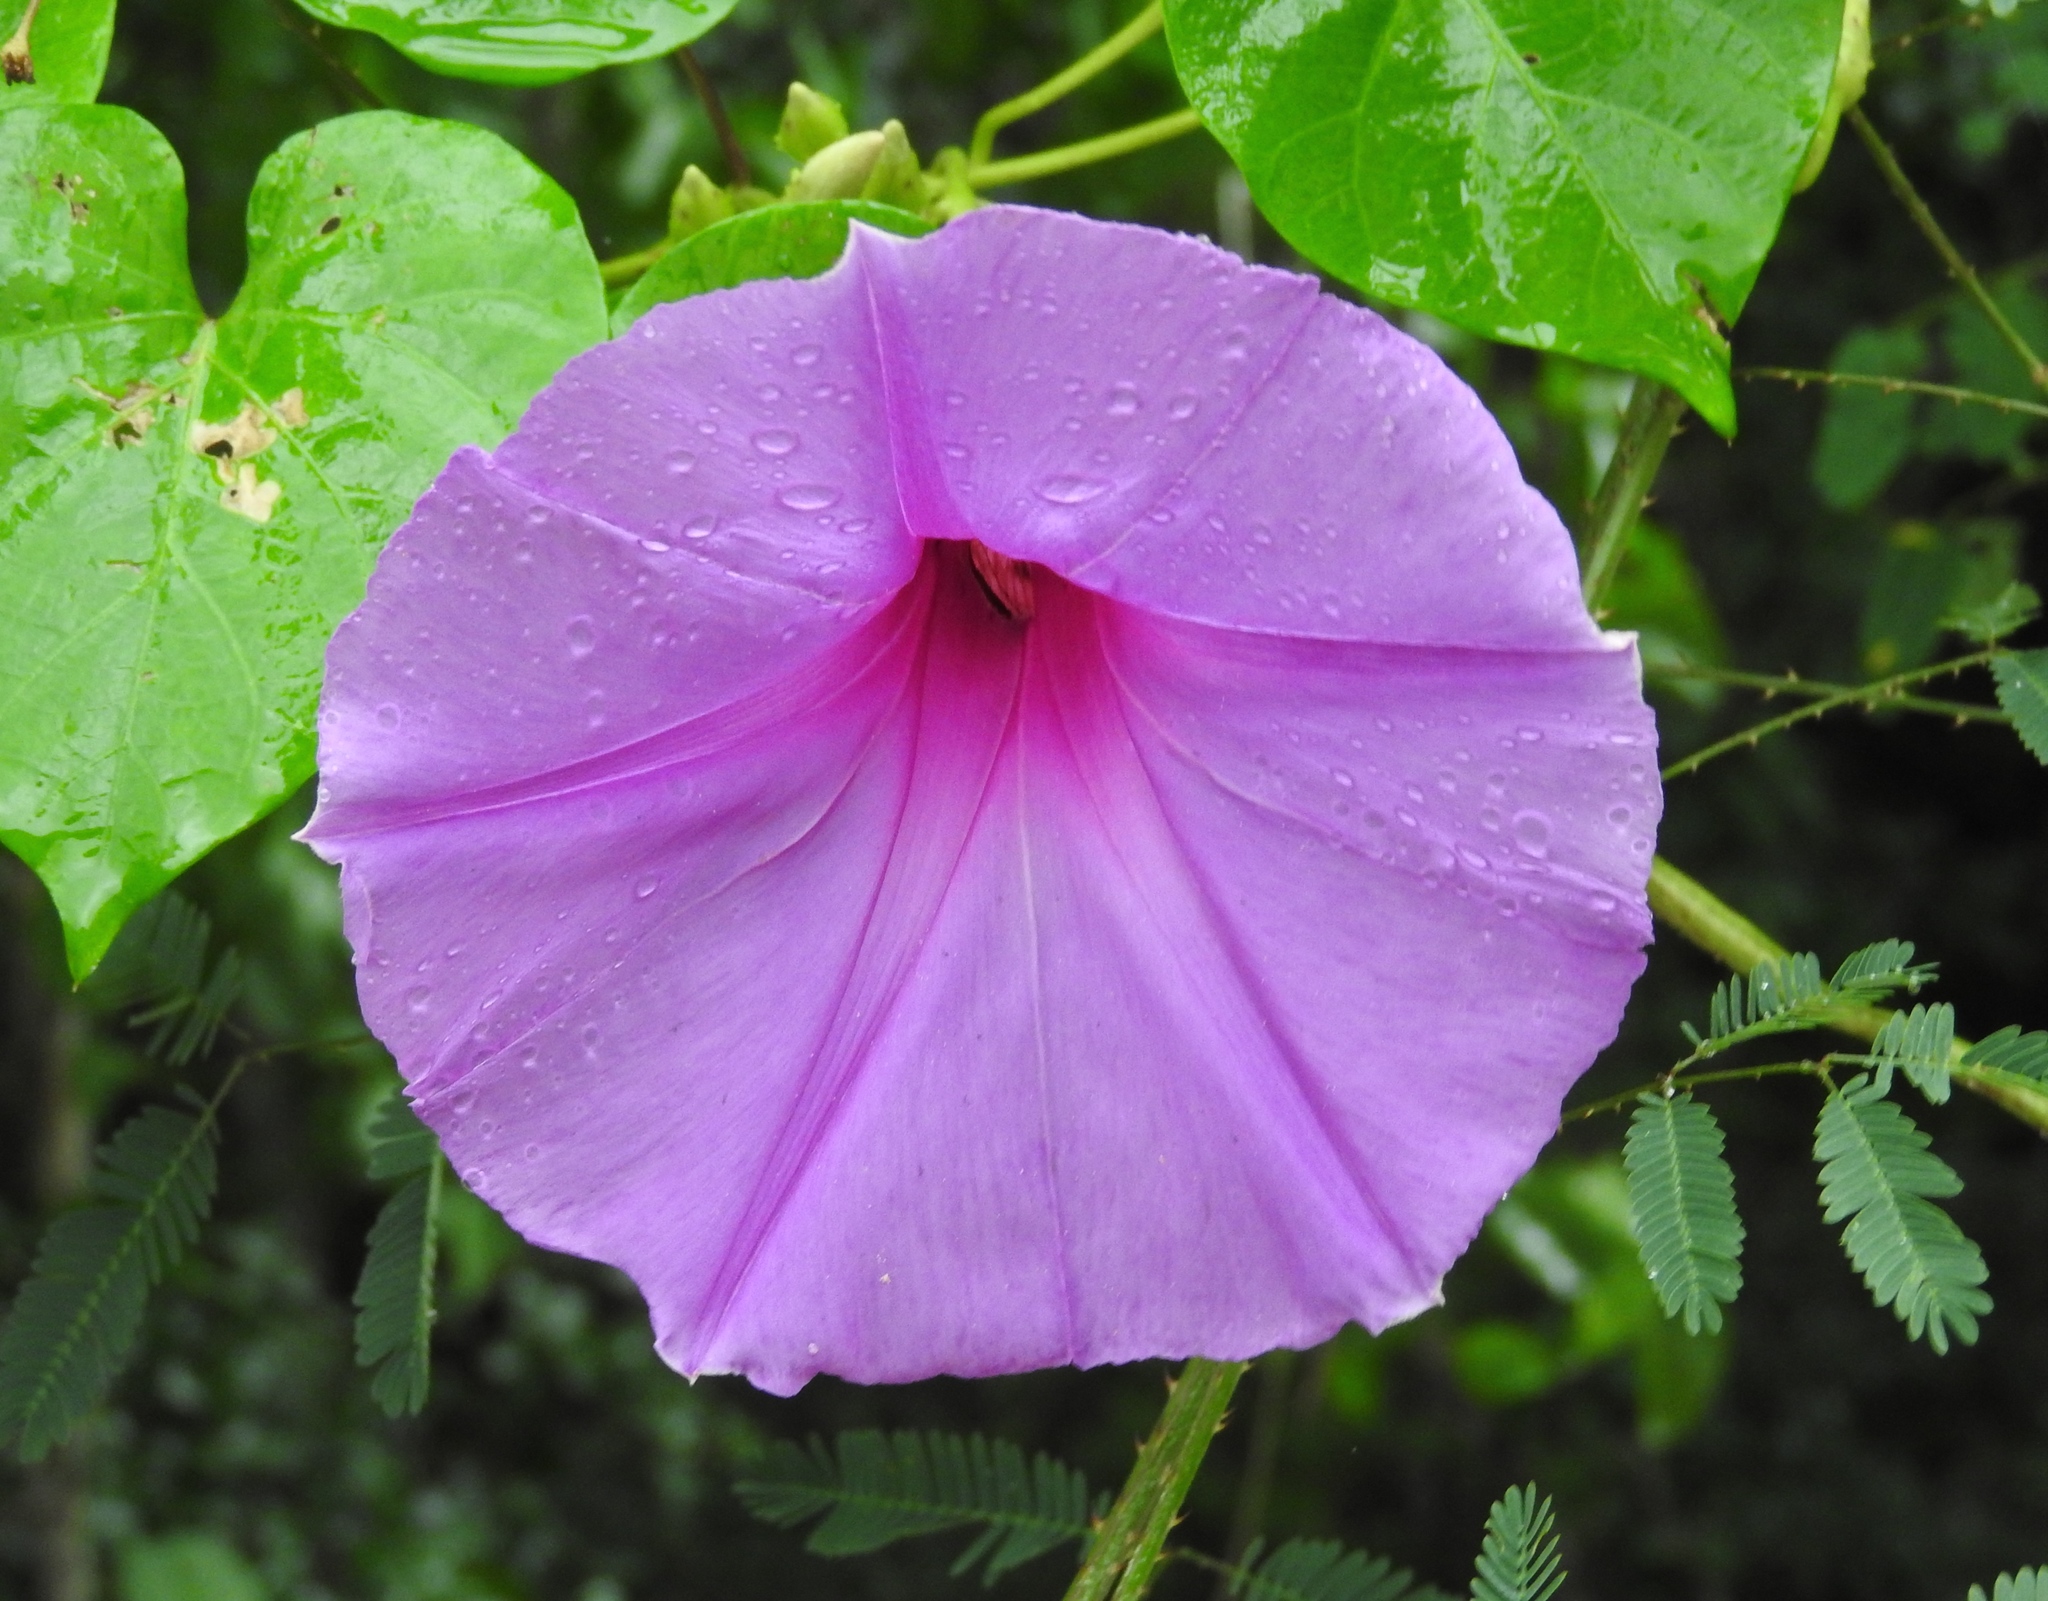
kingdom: Plantae
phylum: Tracheophyta
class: Magnoliopsida
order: Solanales
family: Convolvulaceae
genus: Ipomoea
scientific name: Ipomoea pedicellaris
